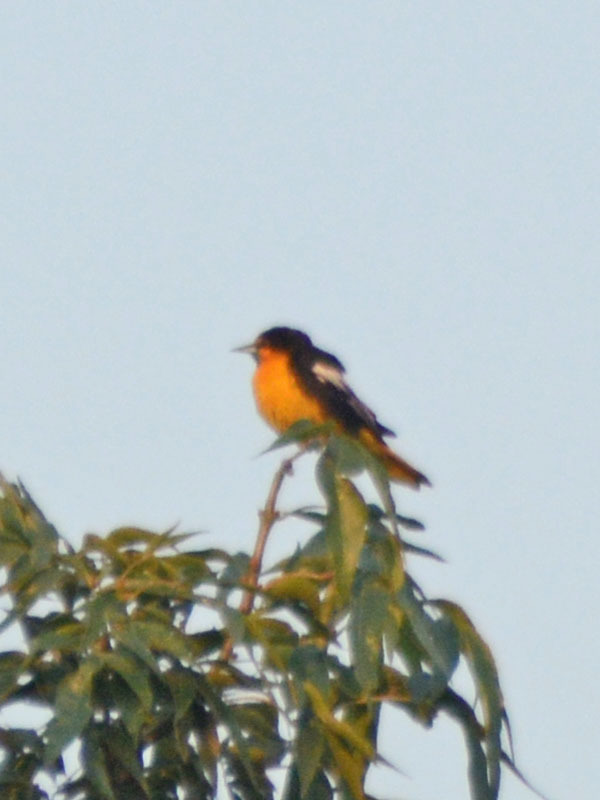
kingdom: Animalia
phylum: Chordata
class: Aves
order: Passeriformes
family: Icteridae
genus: Icterus
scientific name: Icterus abeillei
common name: Black-backed oriole
